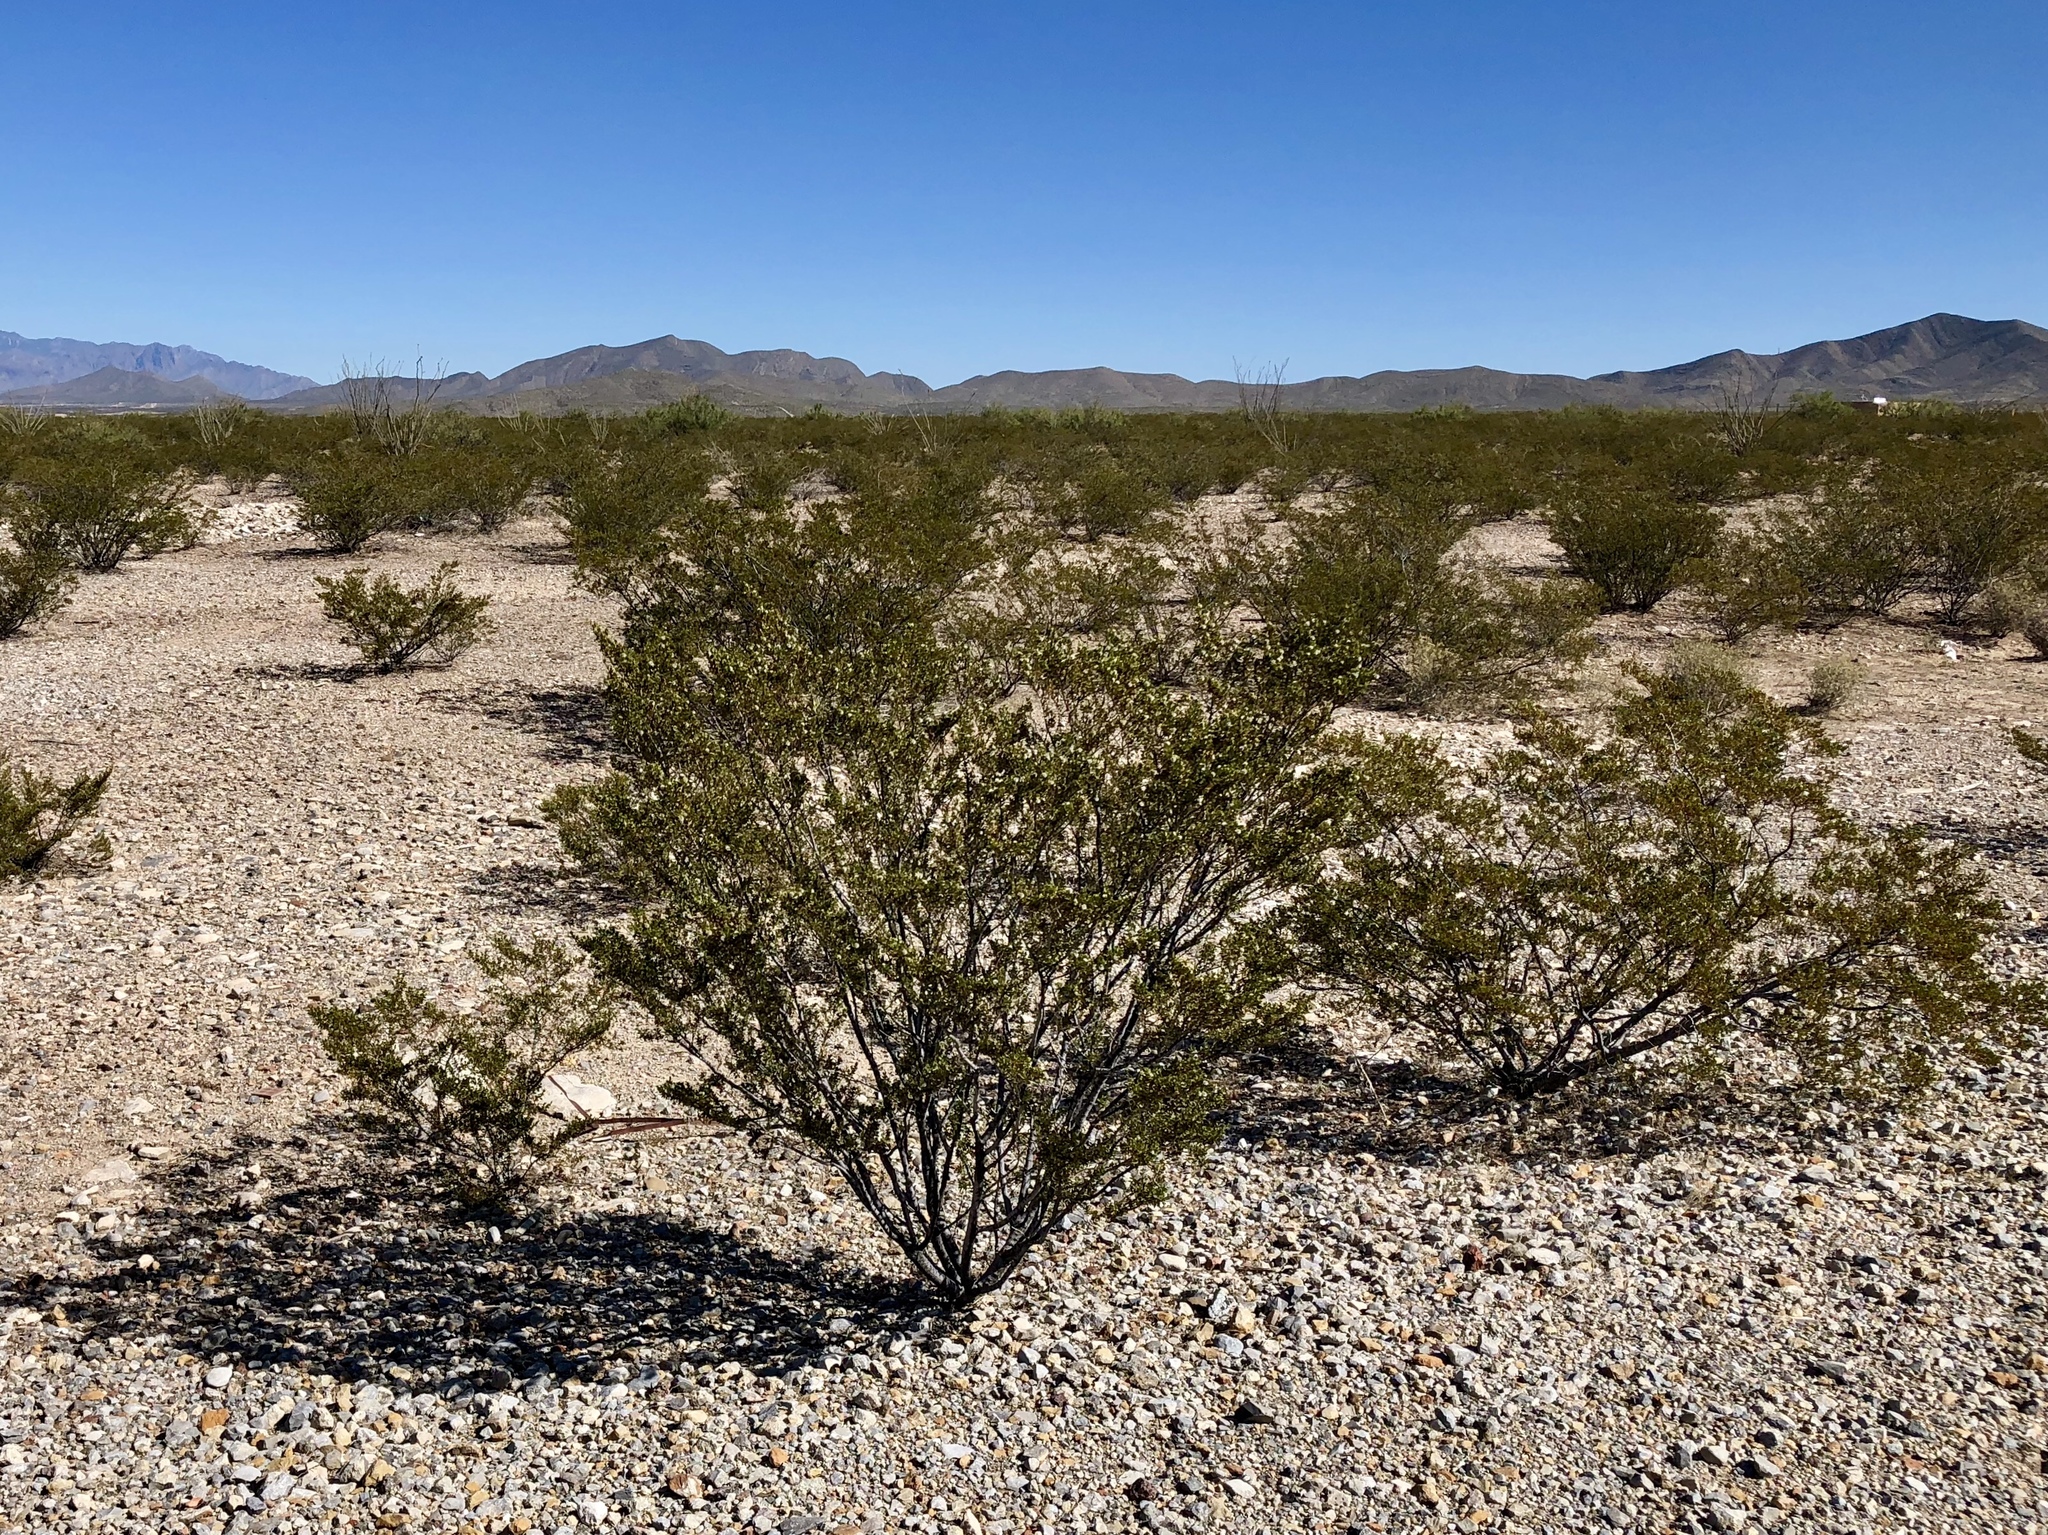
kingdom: Plantae
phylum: Tracheophyta
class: Magnoliopsida
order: Zygophyllales
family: Zygophyllaceae
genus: Larrea
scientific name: Larrea tridentata
